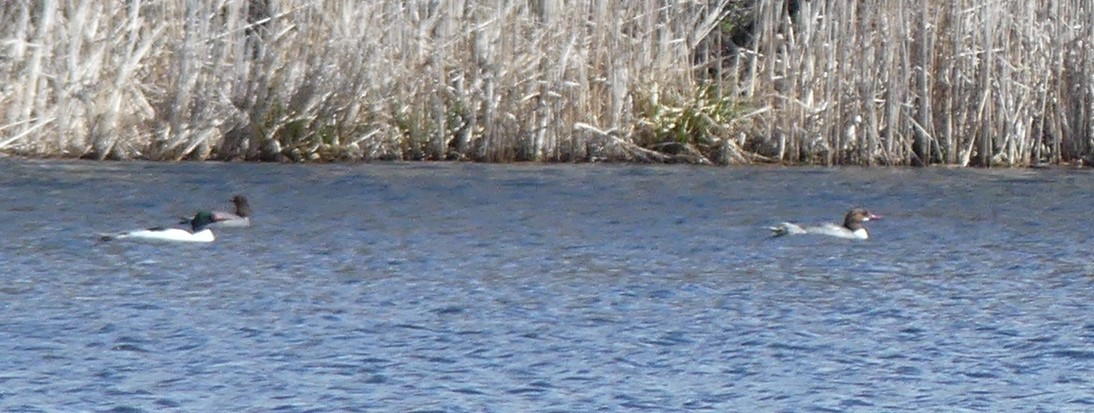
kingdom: Animalia
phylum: Chordata
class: Aves
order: Anseriformes
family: Anatidae
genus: Mergus
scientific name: Mergus merganser
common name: Common merganser
